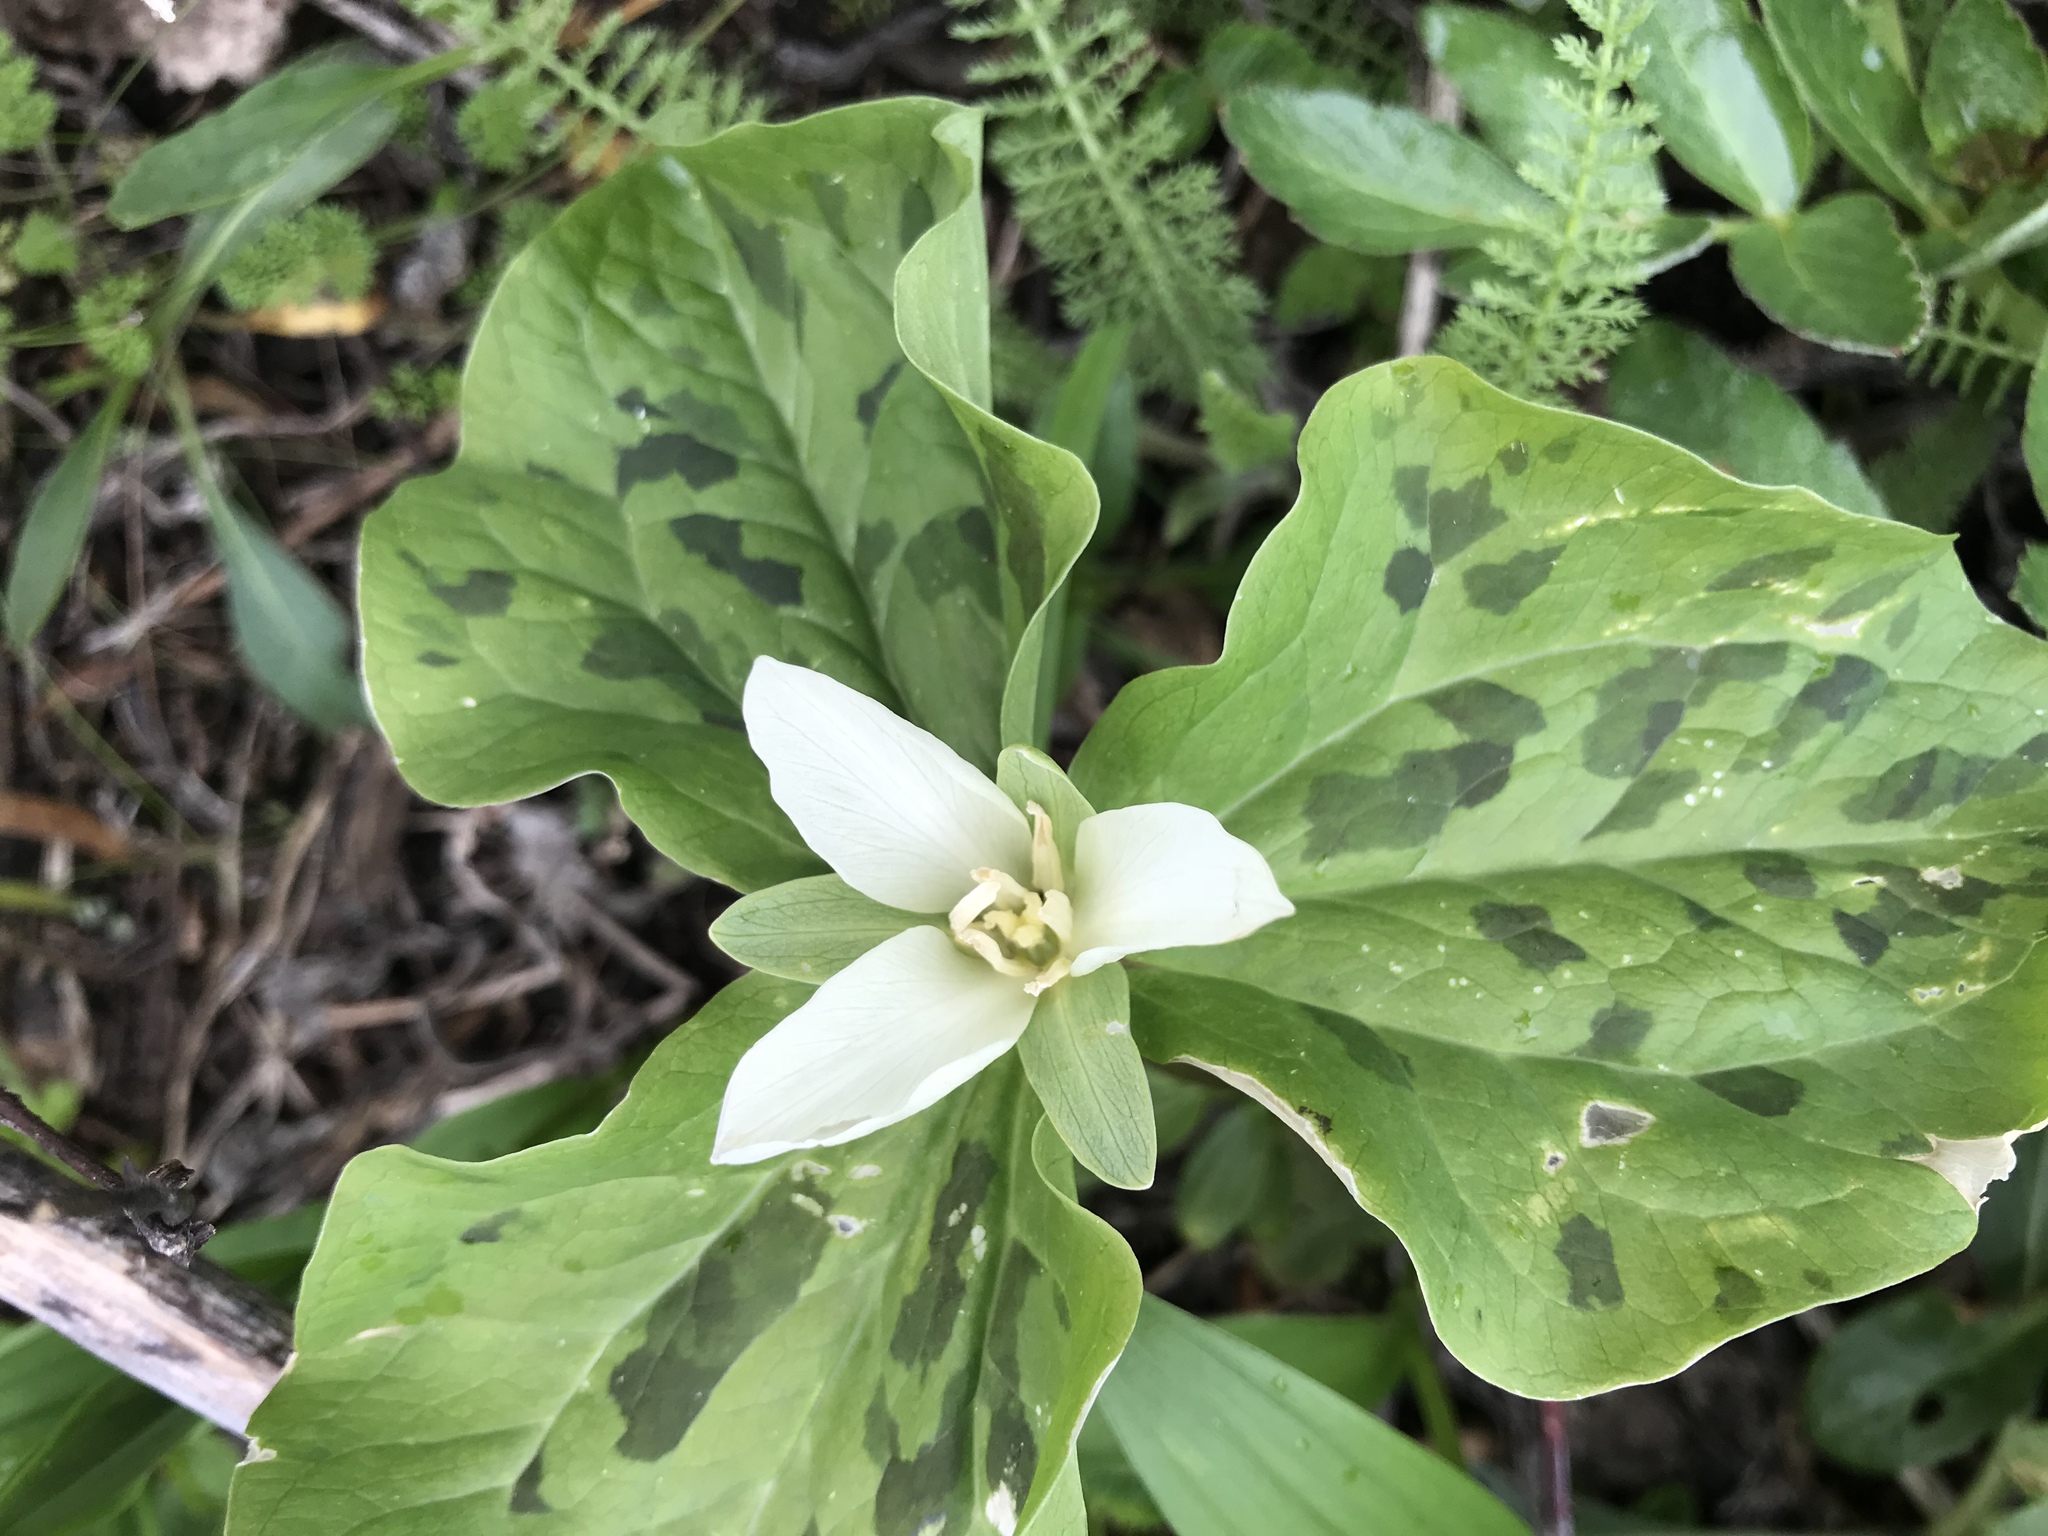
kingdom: Plantae
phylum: Tracheophyta
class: Liliopsida
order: Liliales
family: Melanthiaceae
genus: Trillium
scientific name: Trillium albidum
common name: Freeman's trillium
